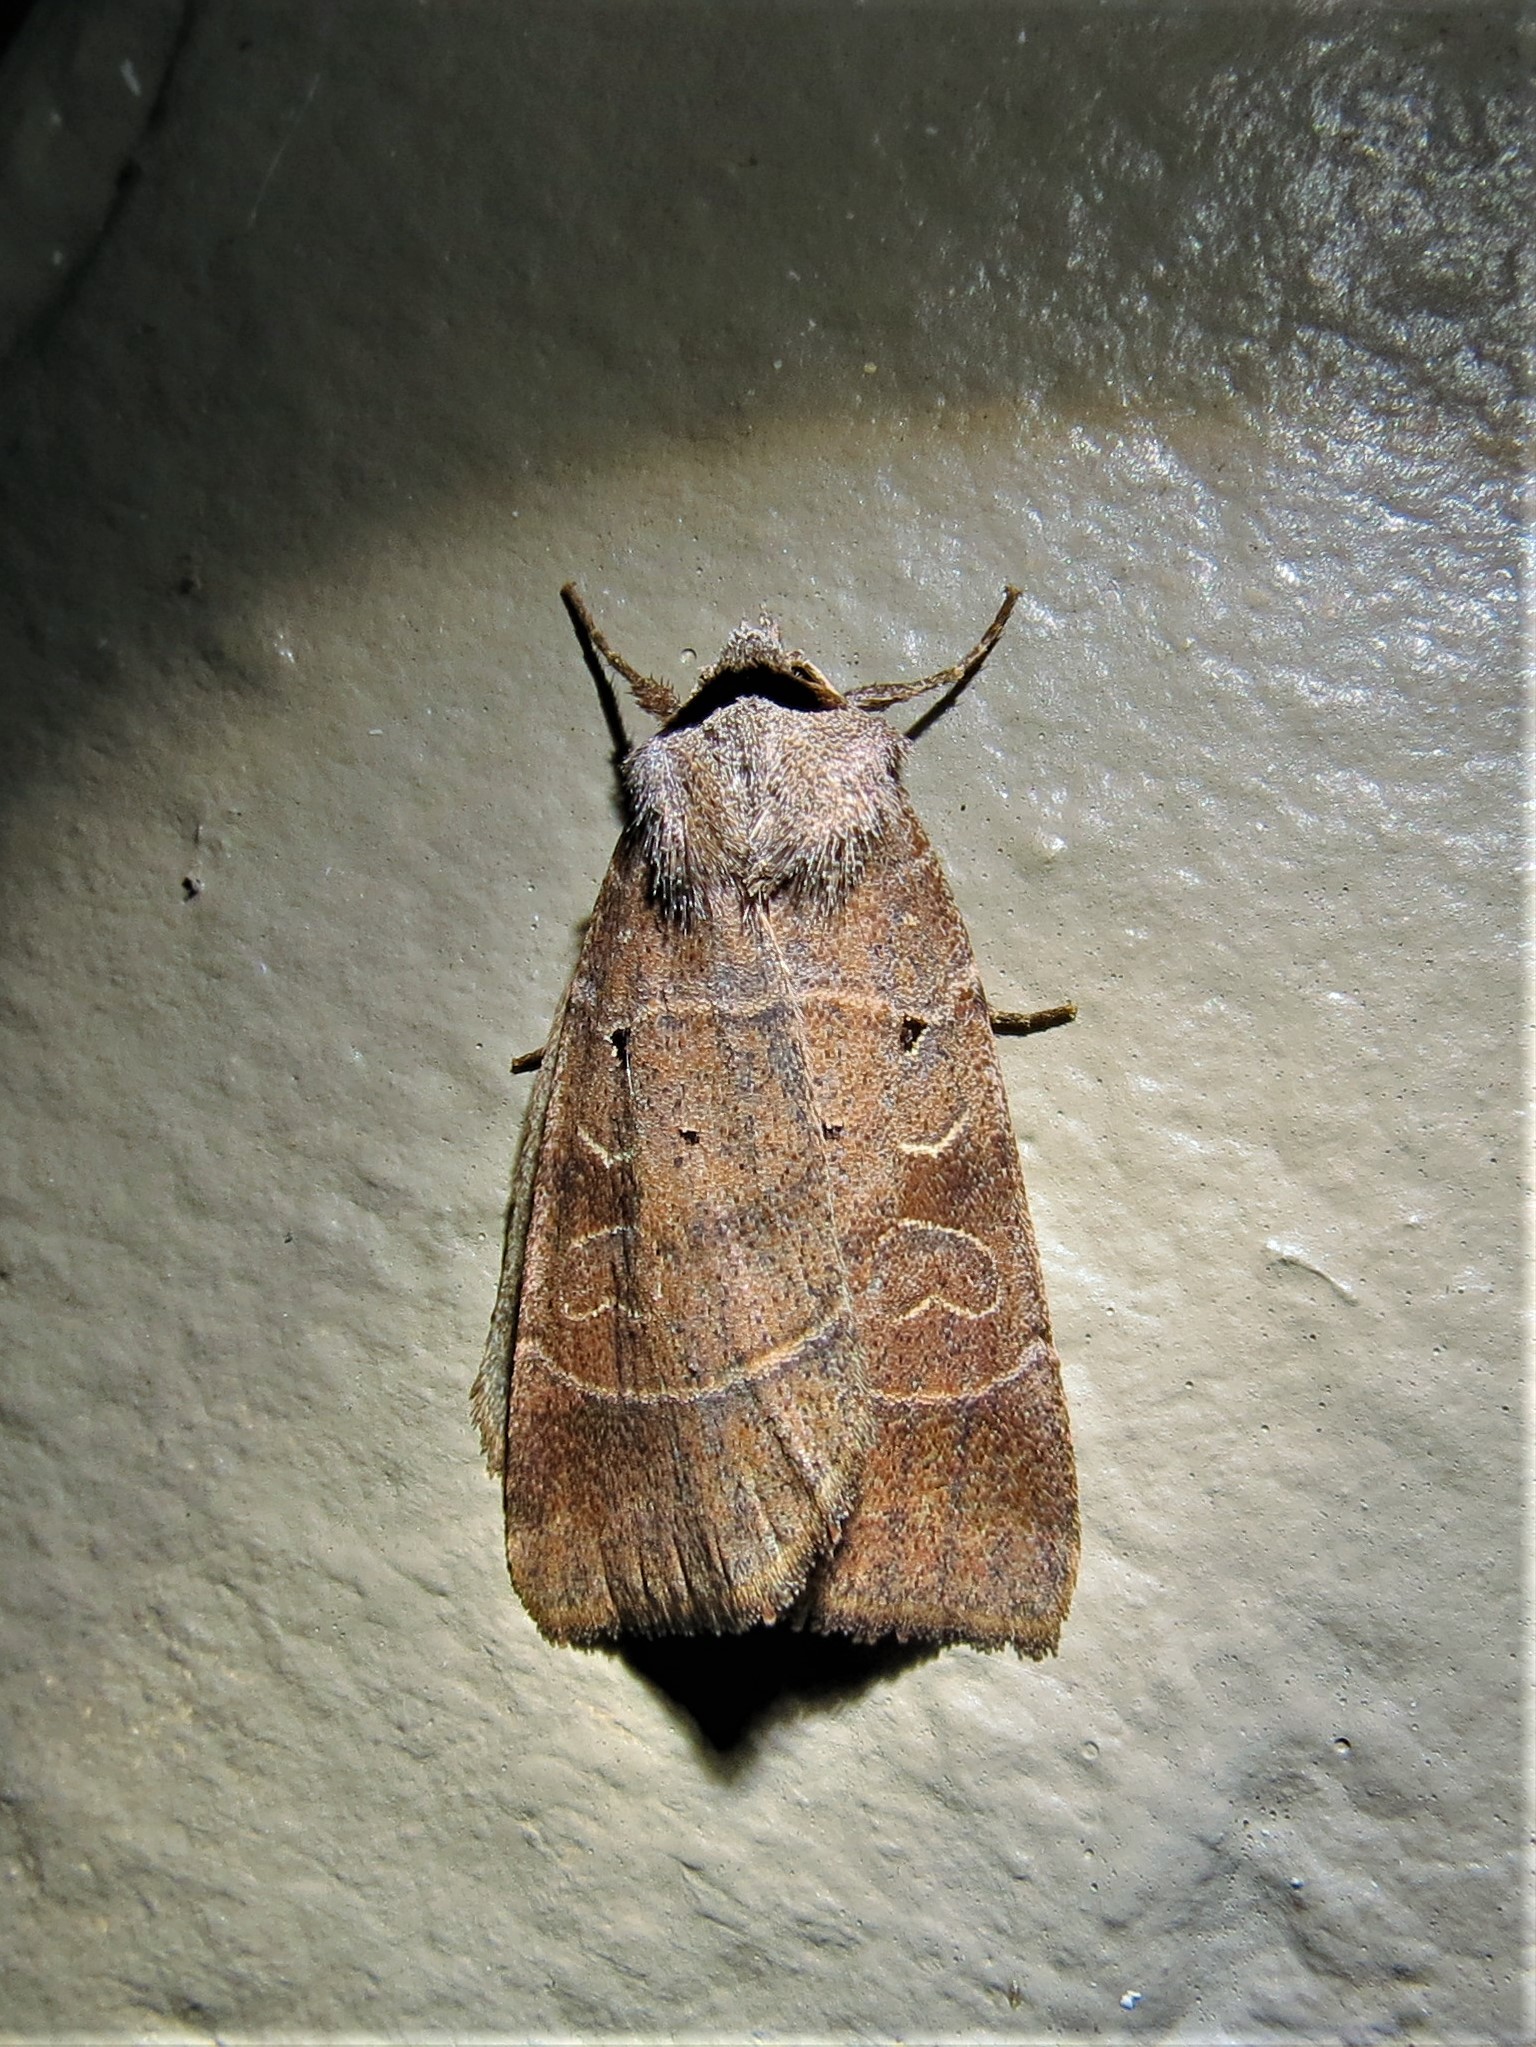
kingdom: Animalia
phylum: Arthropoda
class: Insecta
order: Lepidoptera
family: Noctuidae
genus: Agnorisma
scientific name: Agnorisma badinodis
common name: Pale-banded dart
